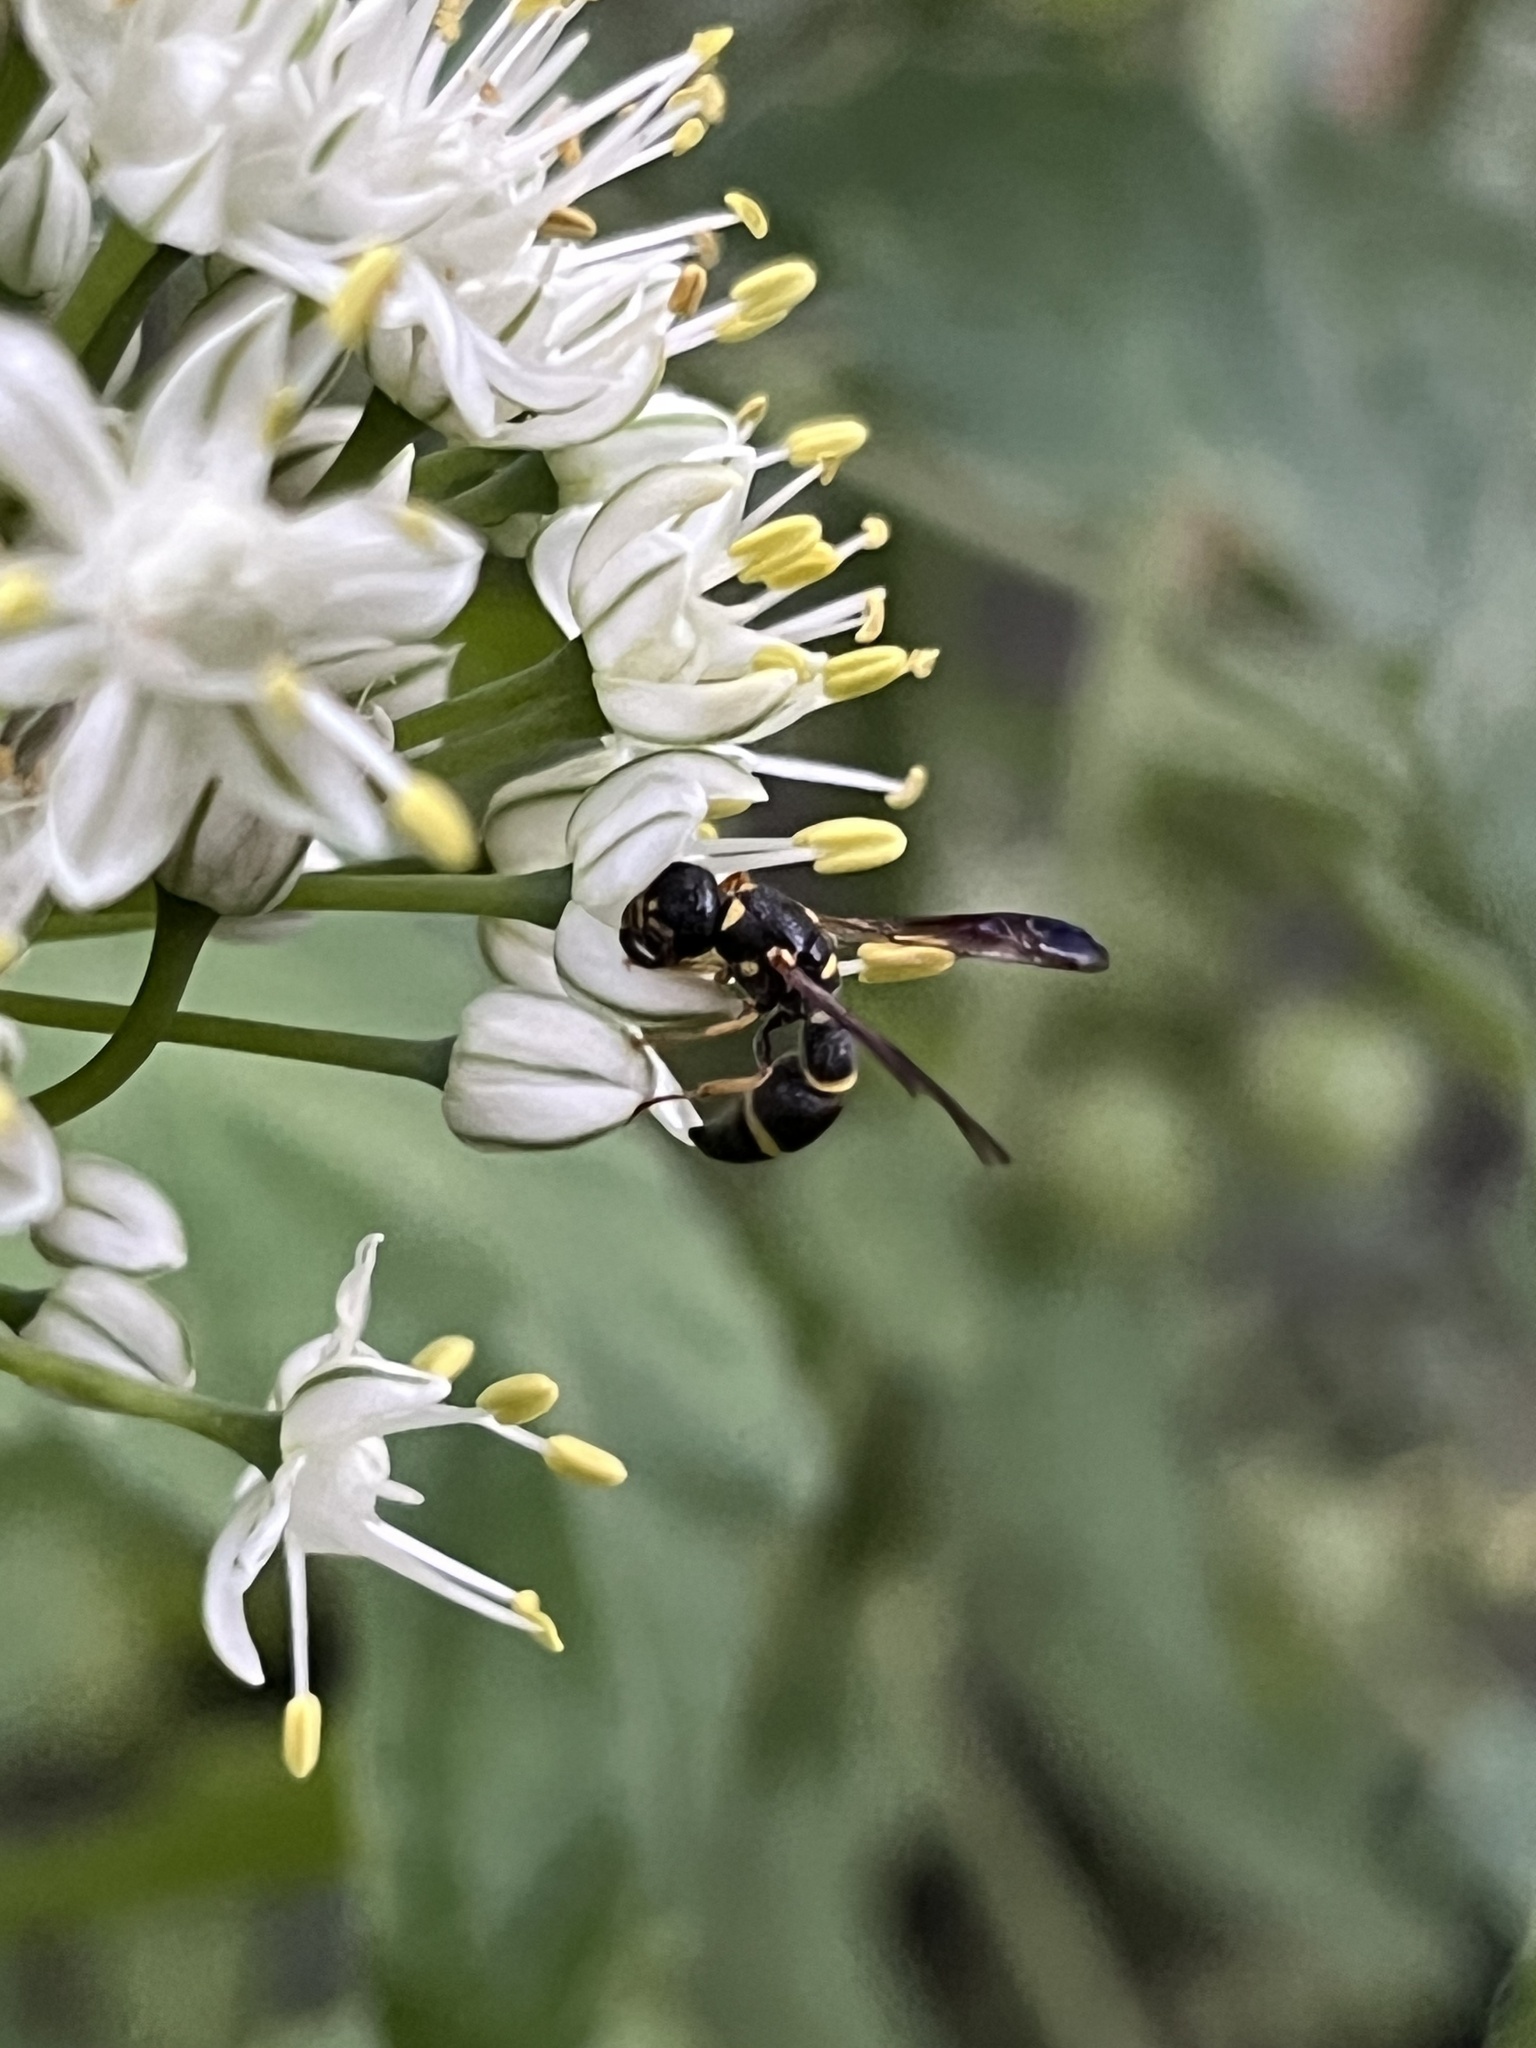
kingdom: Animalia
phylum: Arthropoda
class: Insecta
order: Hymenoptera
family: Eumenidae
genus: Parancistrocerus
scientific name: Parancistrocerus perennis
